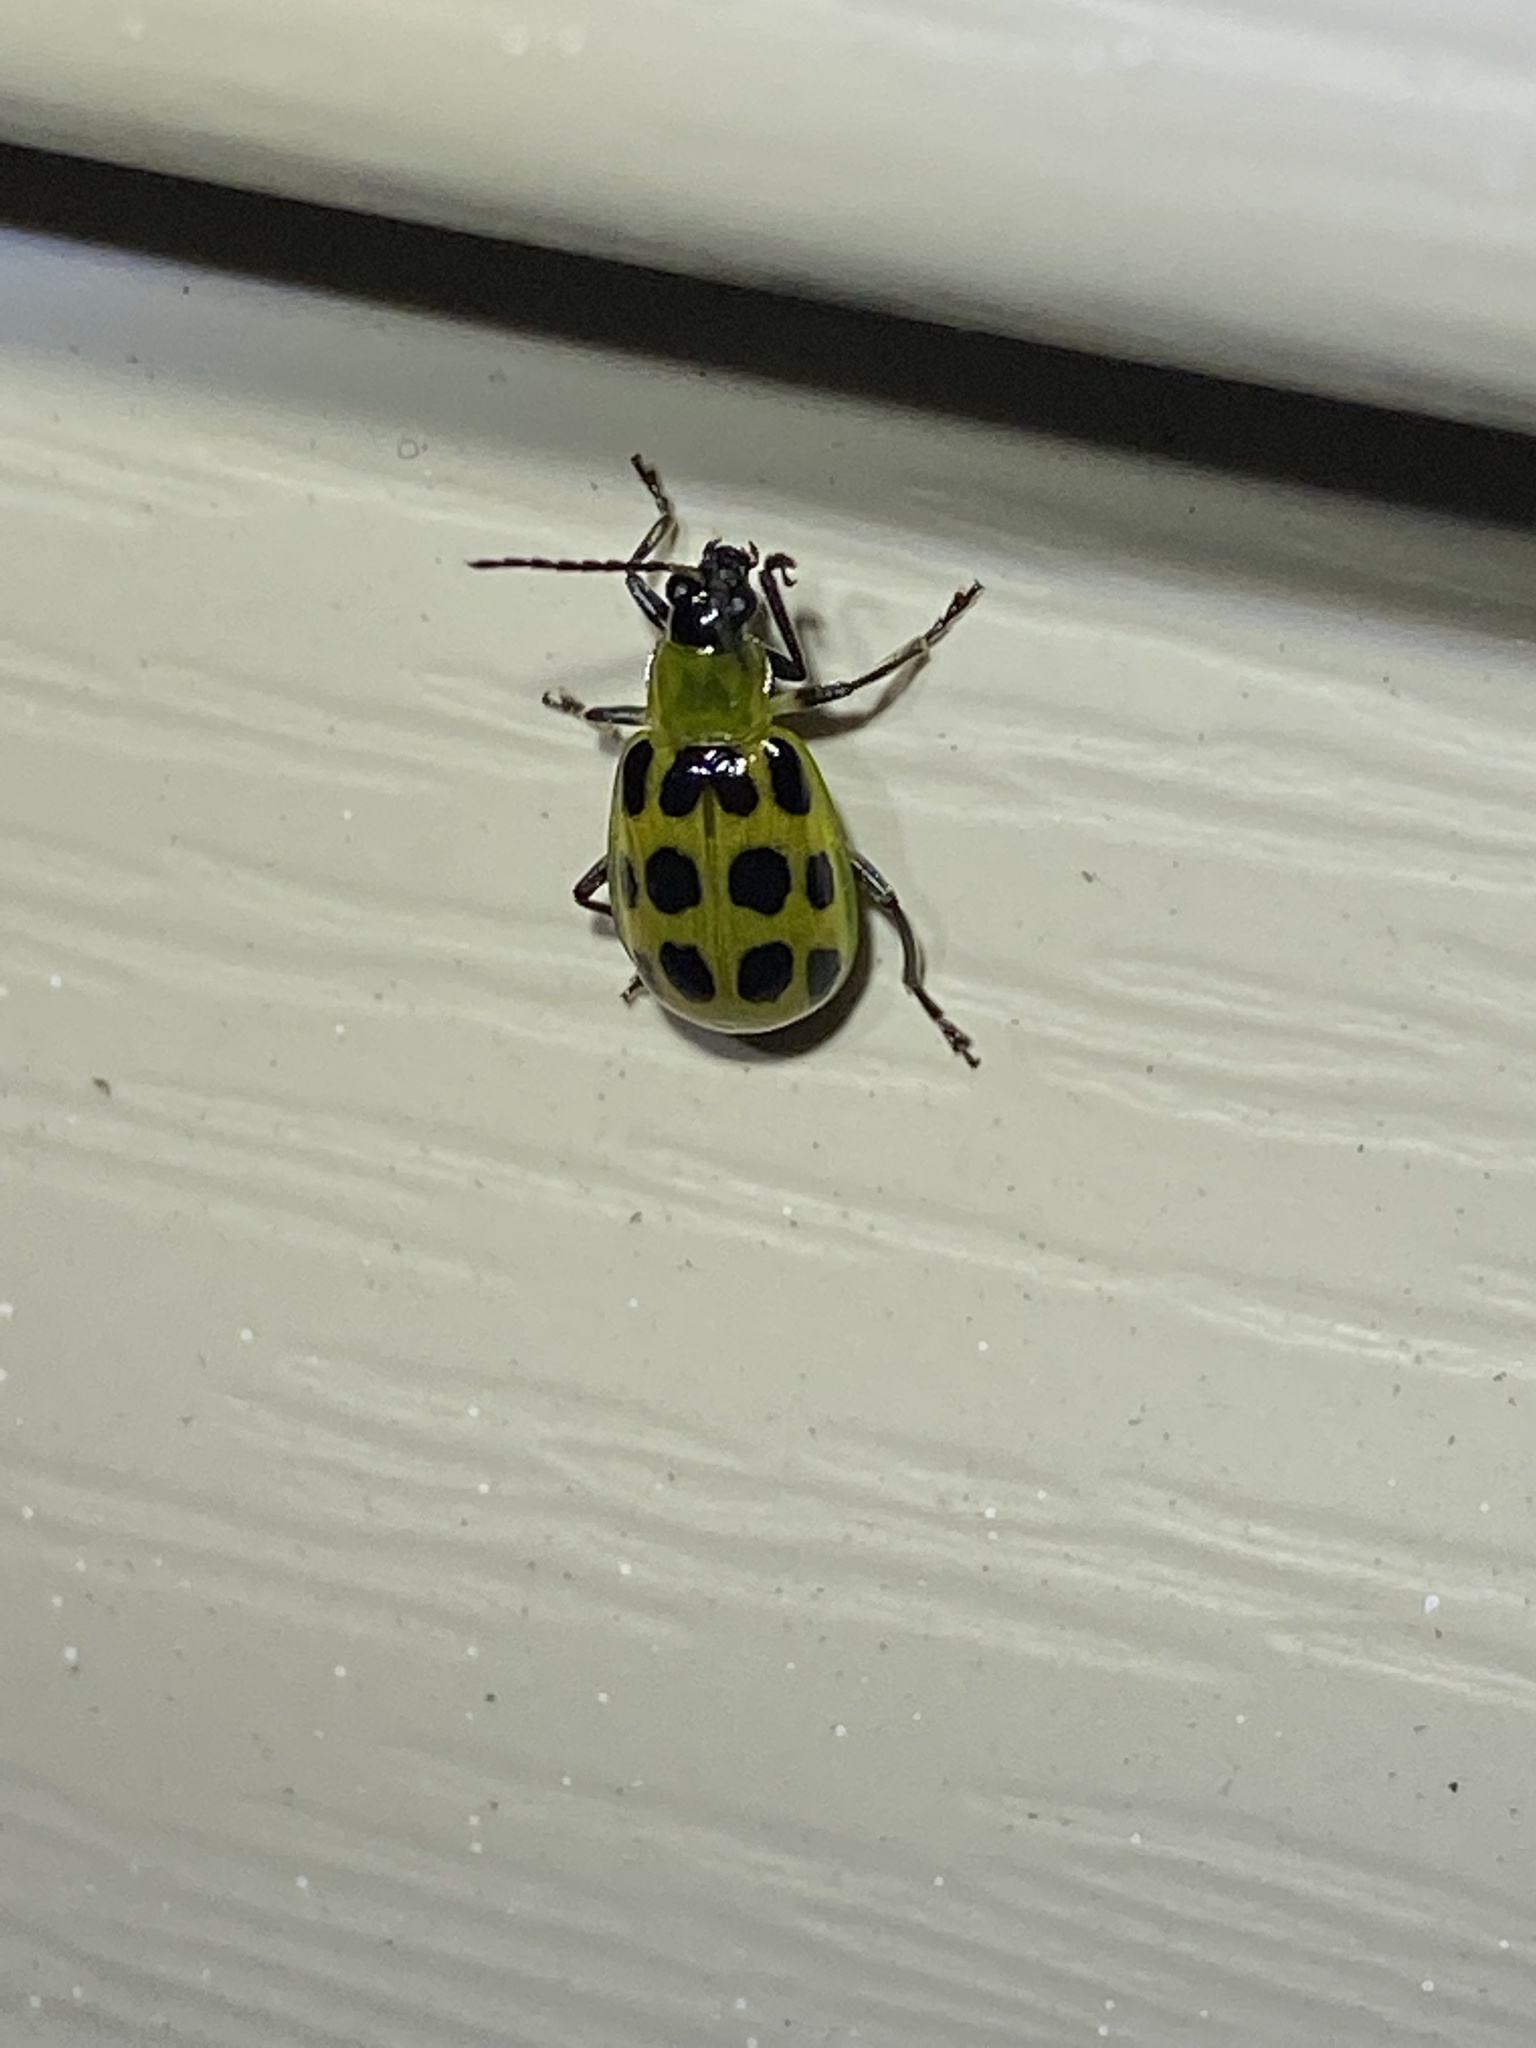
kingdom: Animalia
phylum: Arthropoda
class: Insecta
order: Coleoptera
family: Chrysomelidae
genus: Diabrotica
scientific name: Diabrotica undecimpunctata
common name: Spotted cucumber beetle
